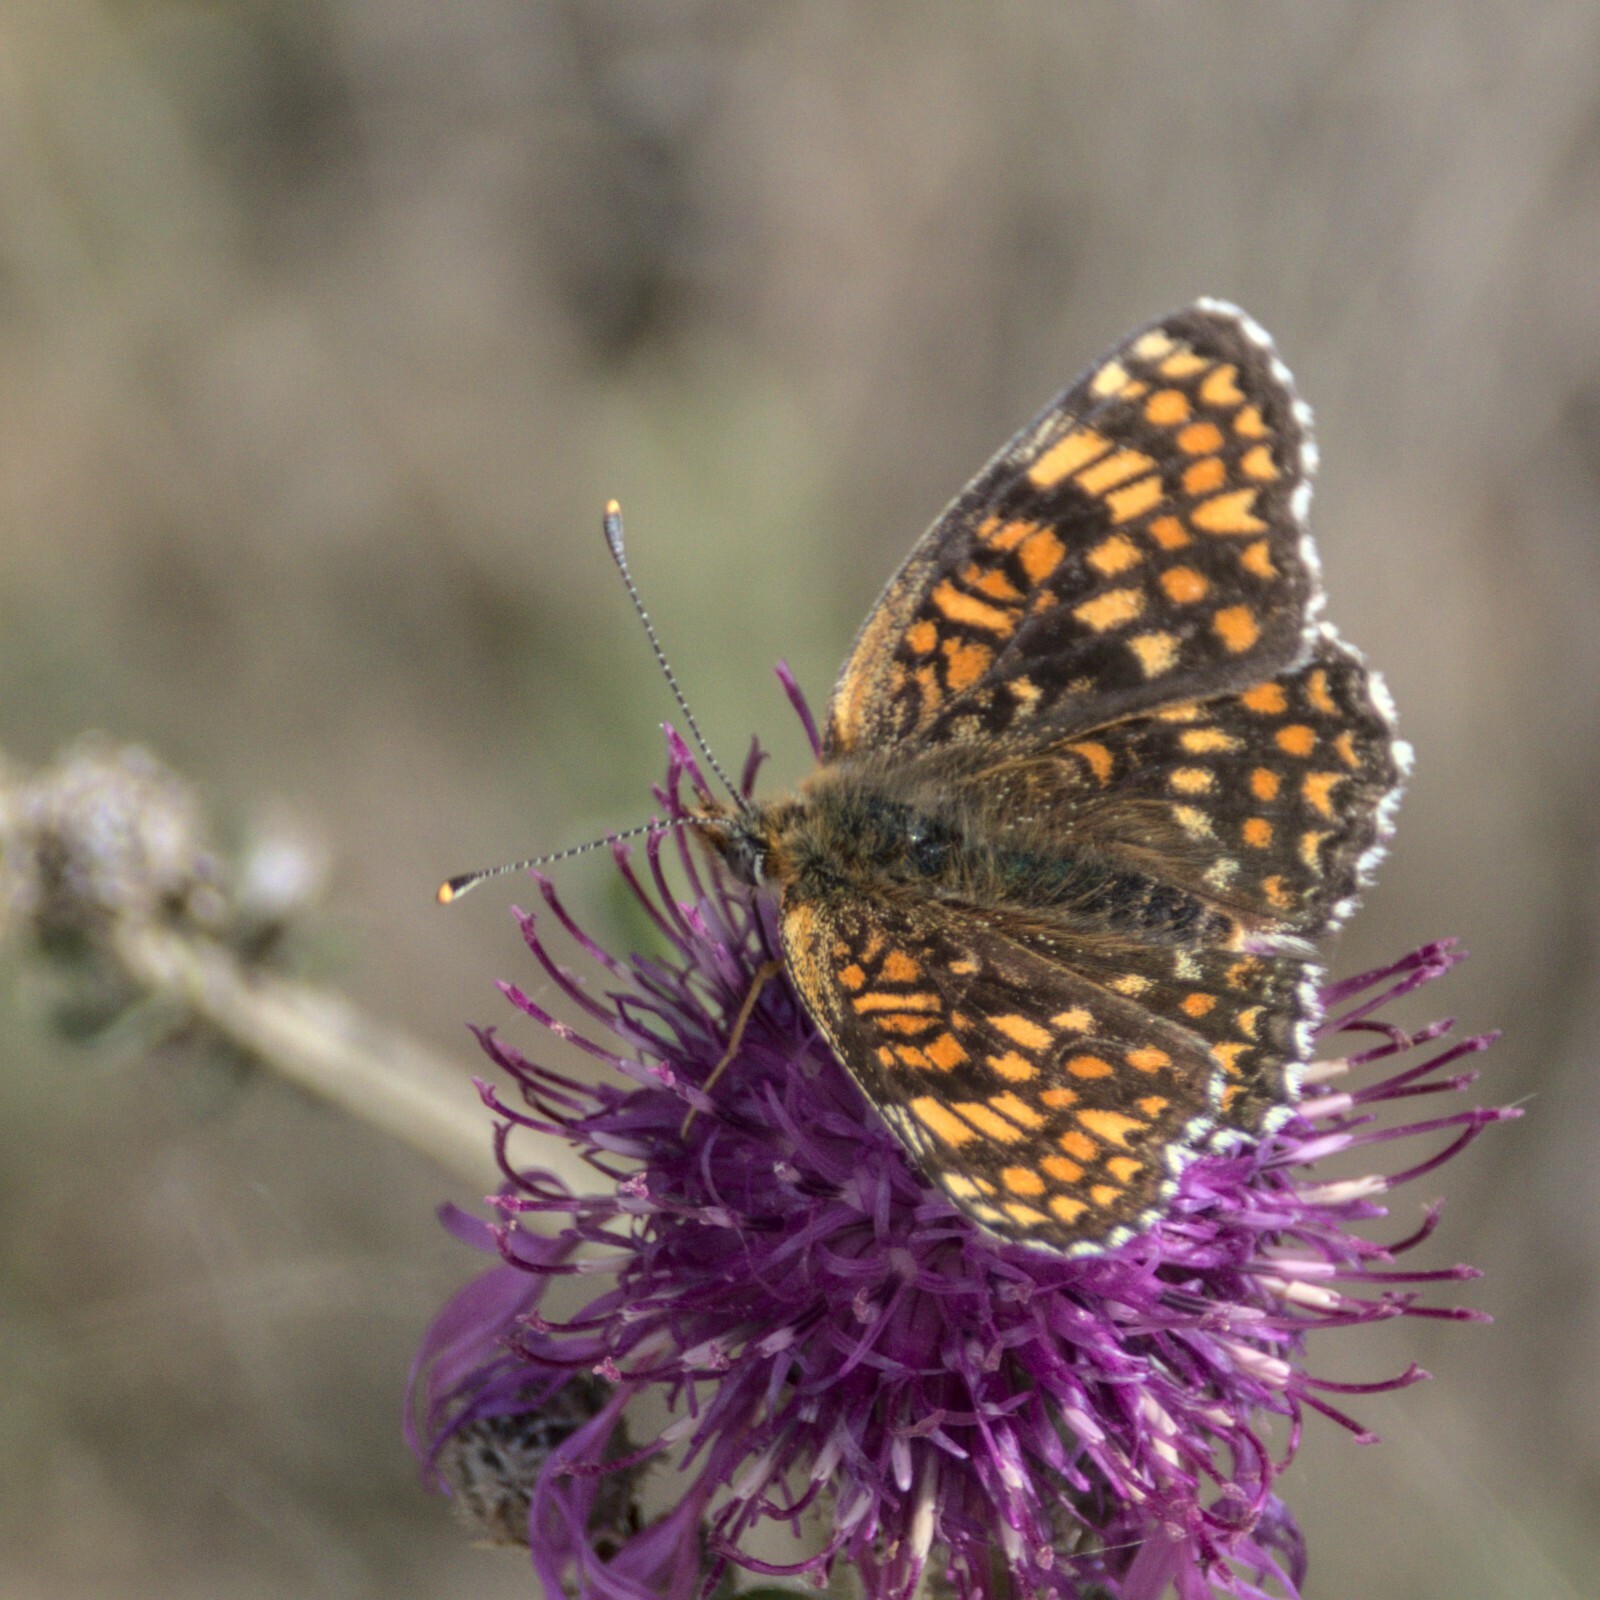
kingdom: Animalia
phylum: Arthropoda
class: Insecta
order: Lepidoptera
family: Nymphalidae
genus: Melitaea
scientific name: Melitaea phoebe
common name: Knapweed fritillary
